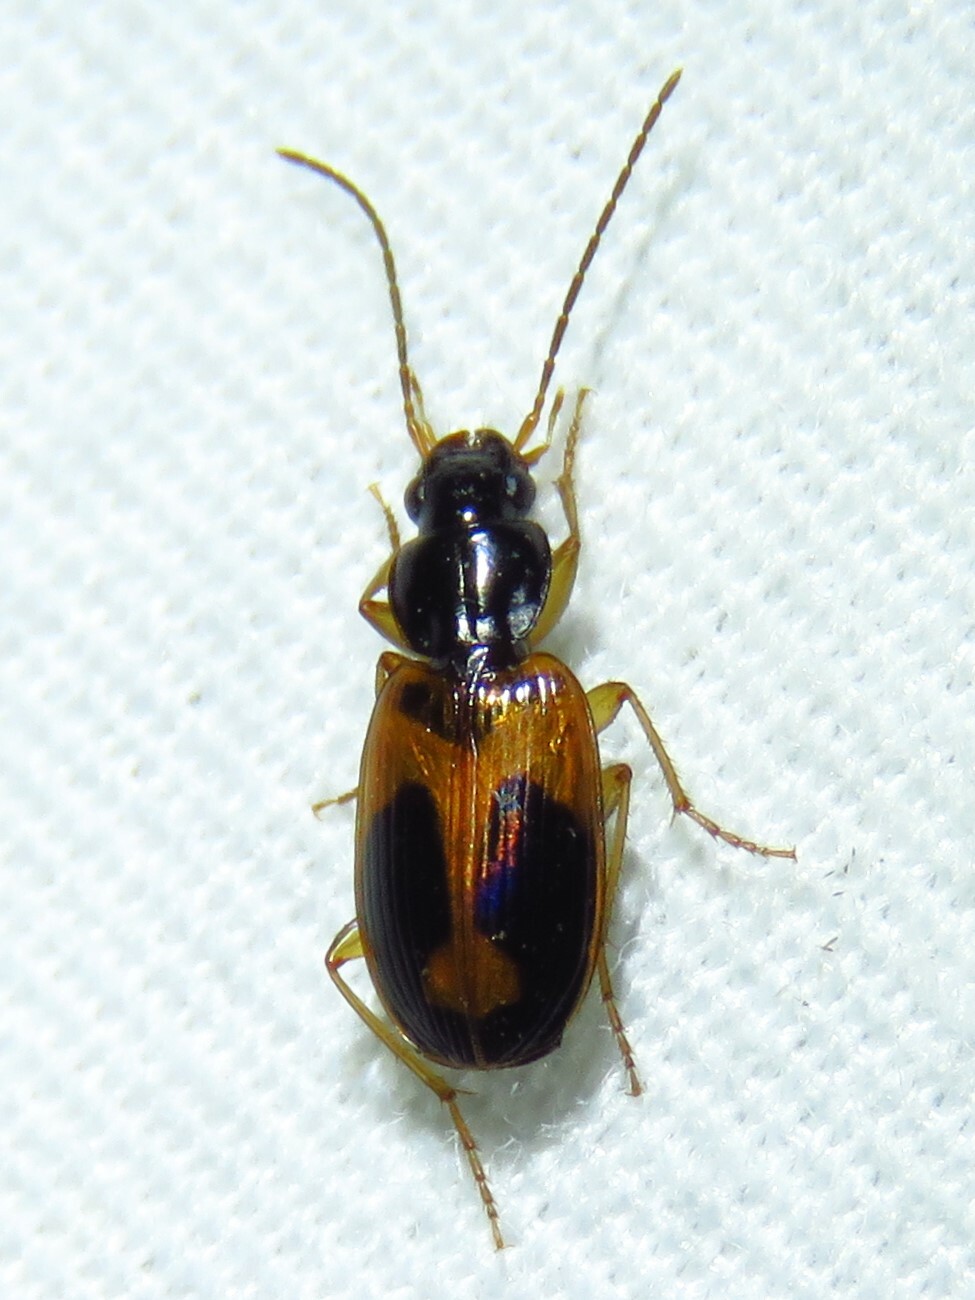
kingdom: Animalia
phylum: Arthropoda
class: Insecta
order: Coleoptera
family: Carabidae
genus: Badister
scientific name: Badister elegans
